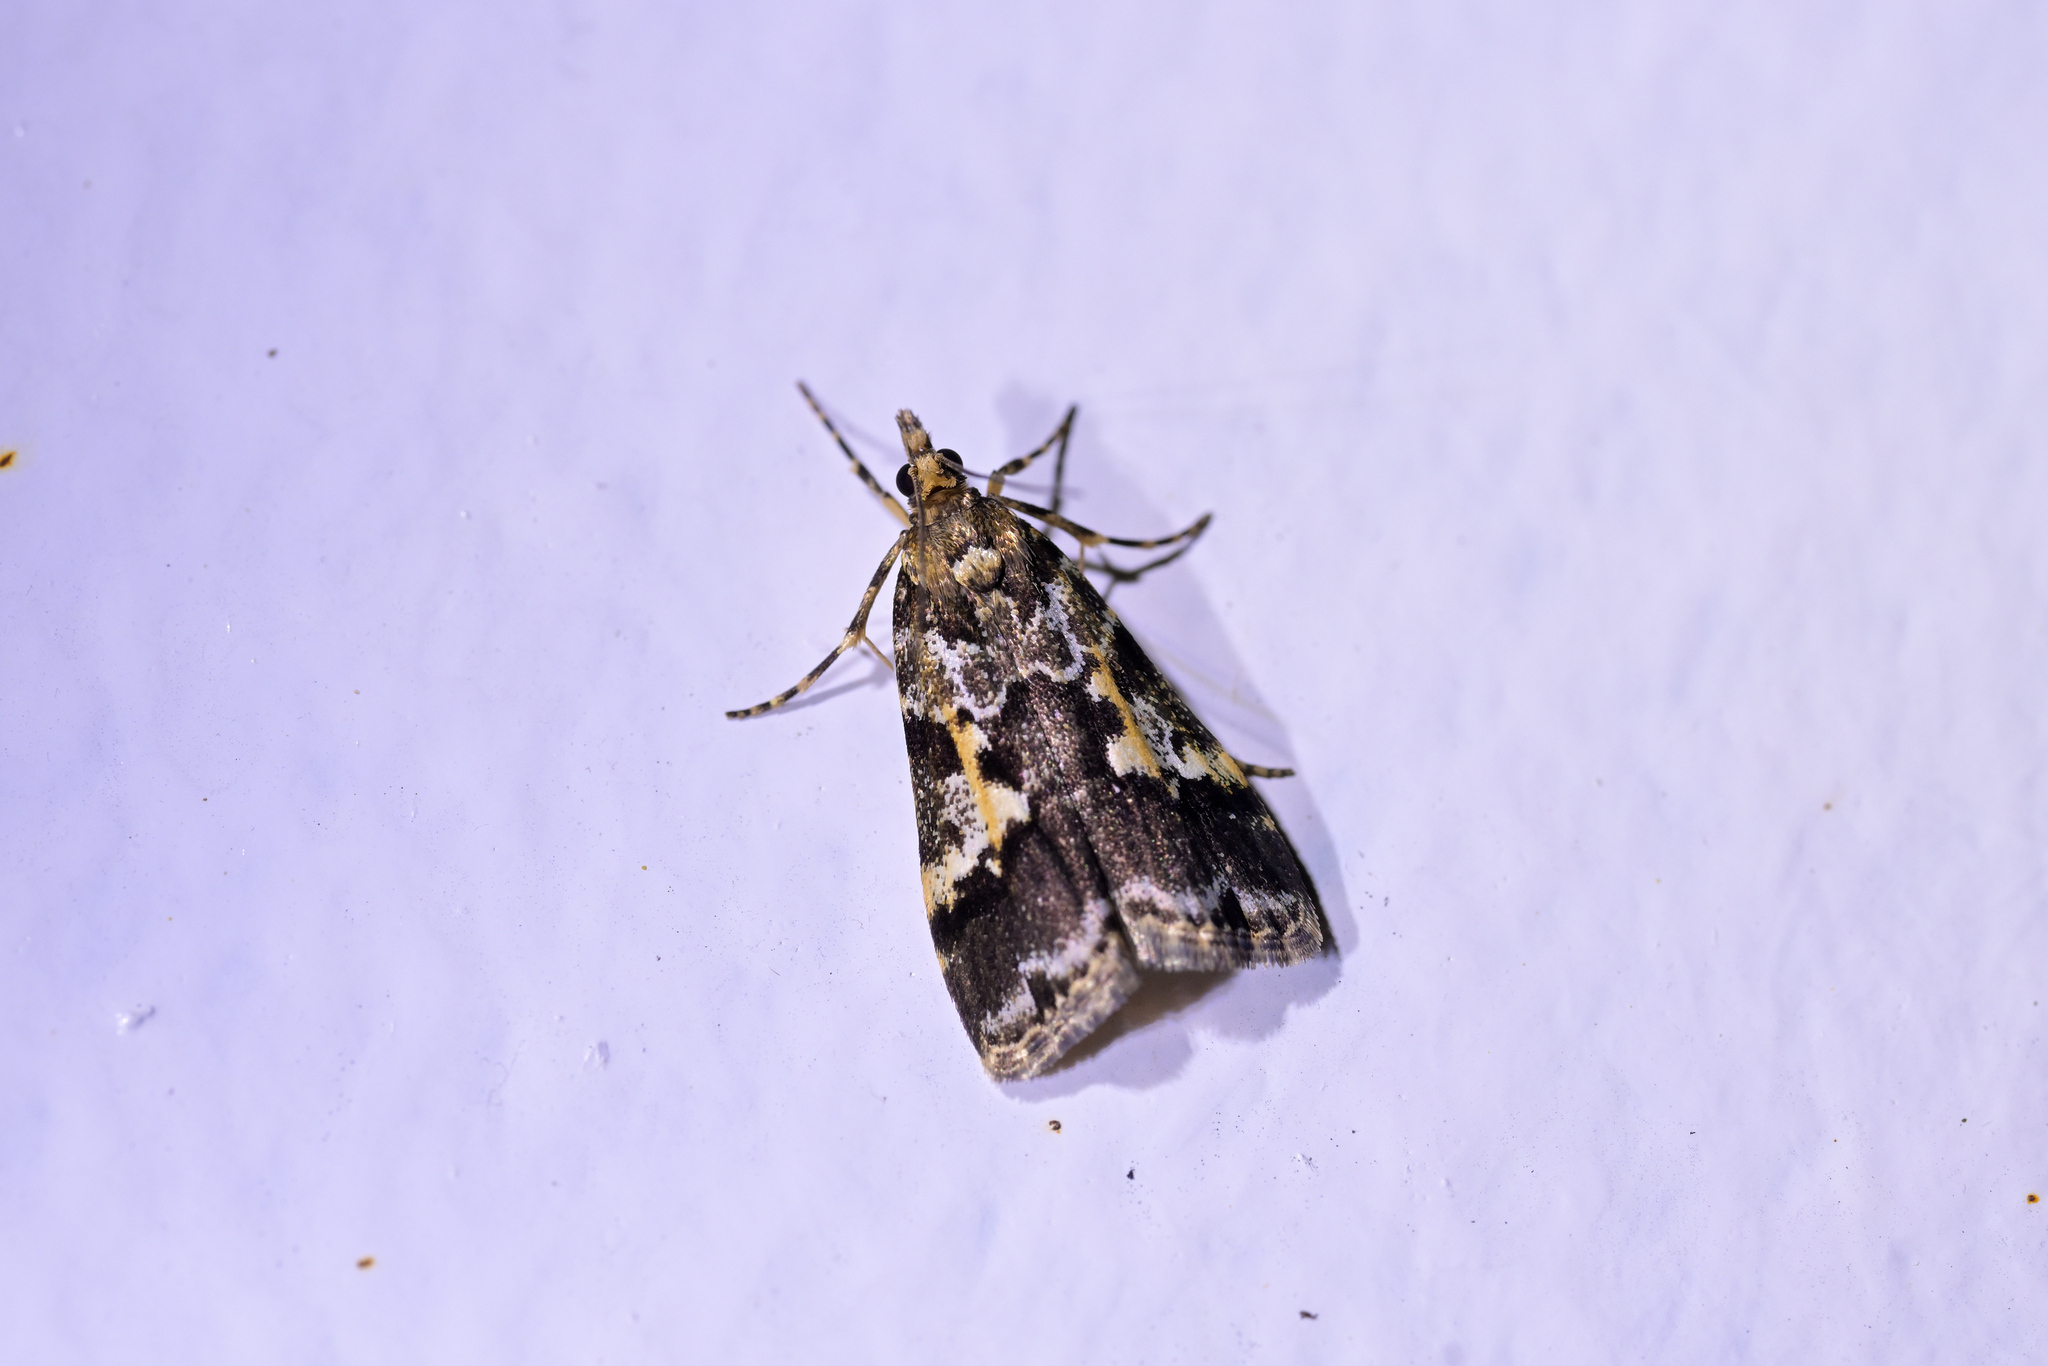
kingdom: Animalia
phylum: Arthropoda
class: Insecta
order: Lepidoptera
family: Crambidae
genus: Eudonia
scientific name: Eudonia characta
